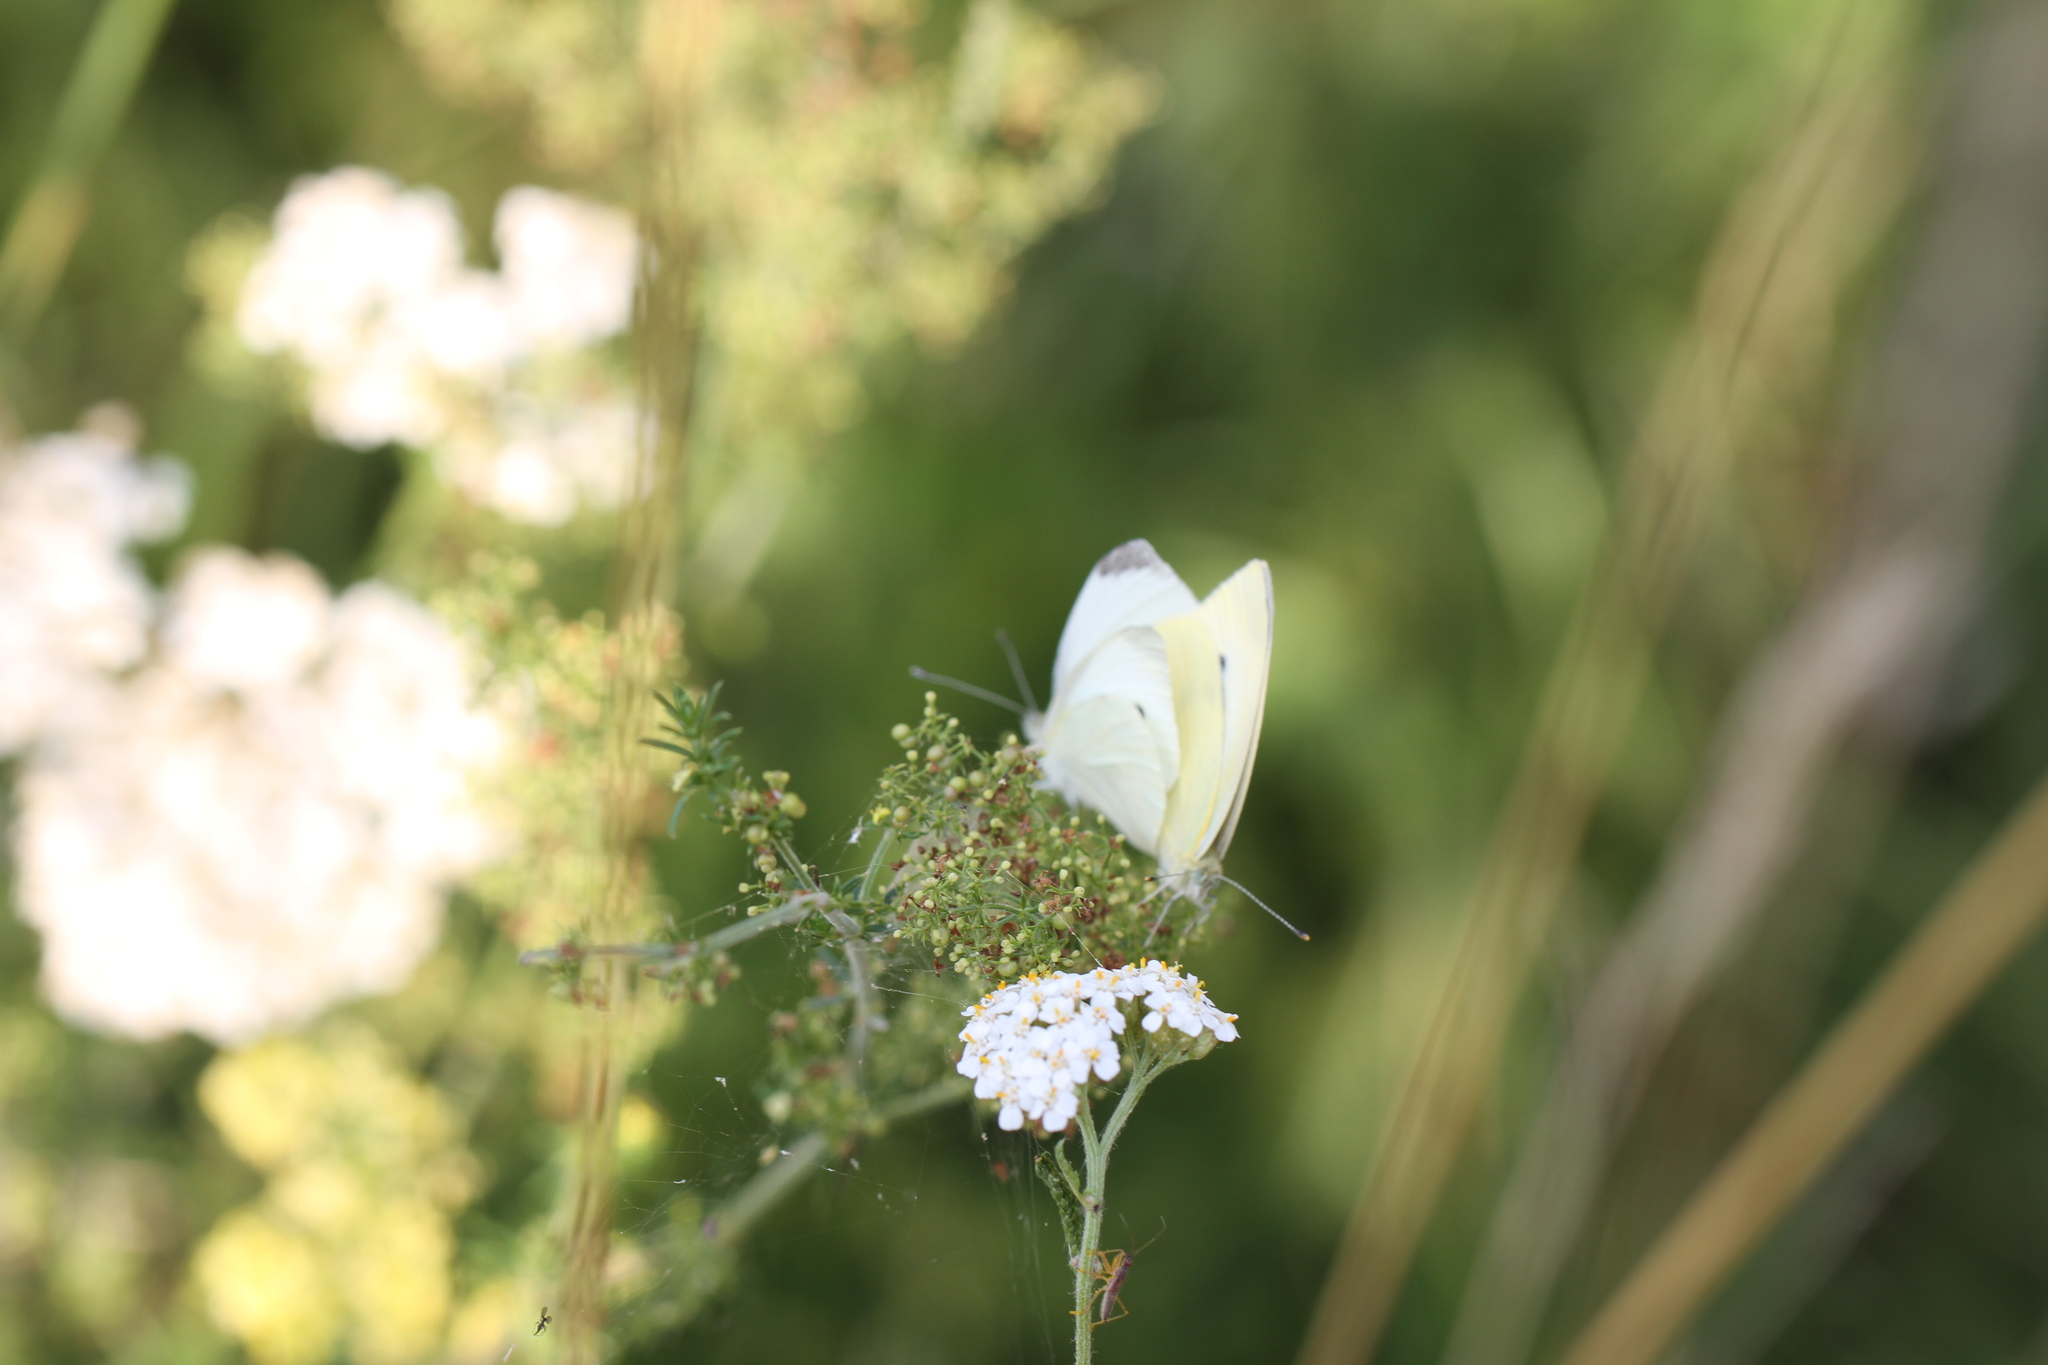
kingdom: Animalia
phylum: Arthropoda
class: Insecta
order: Lepidoptera
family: Pieridae
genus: Pieris
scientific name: Pieris rapae
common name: Small white
